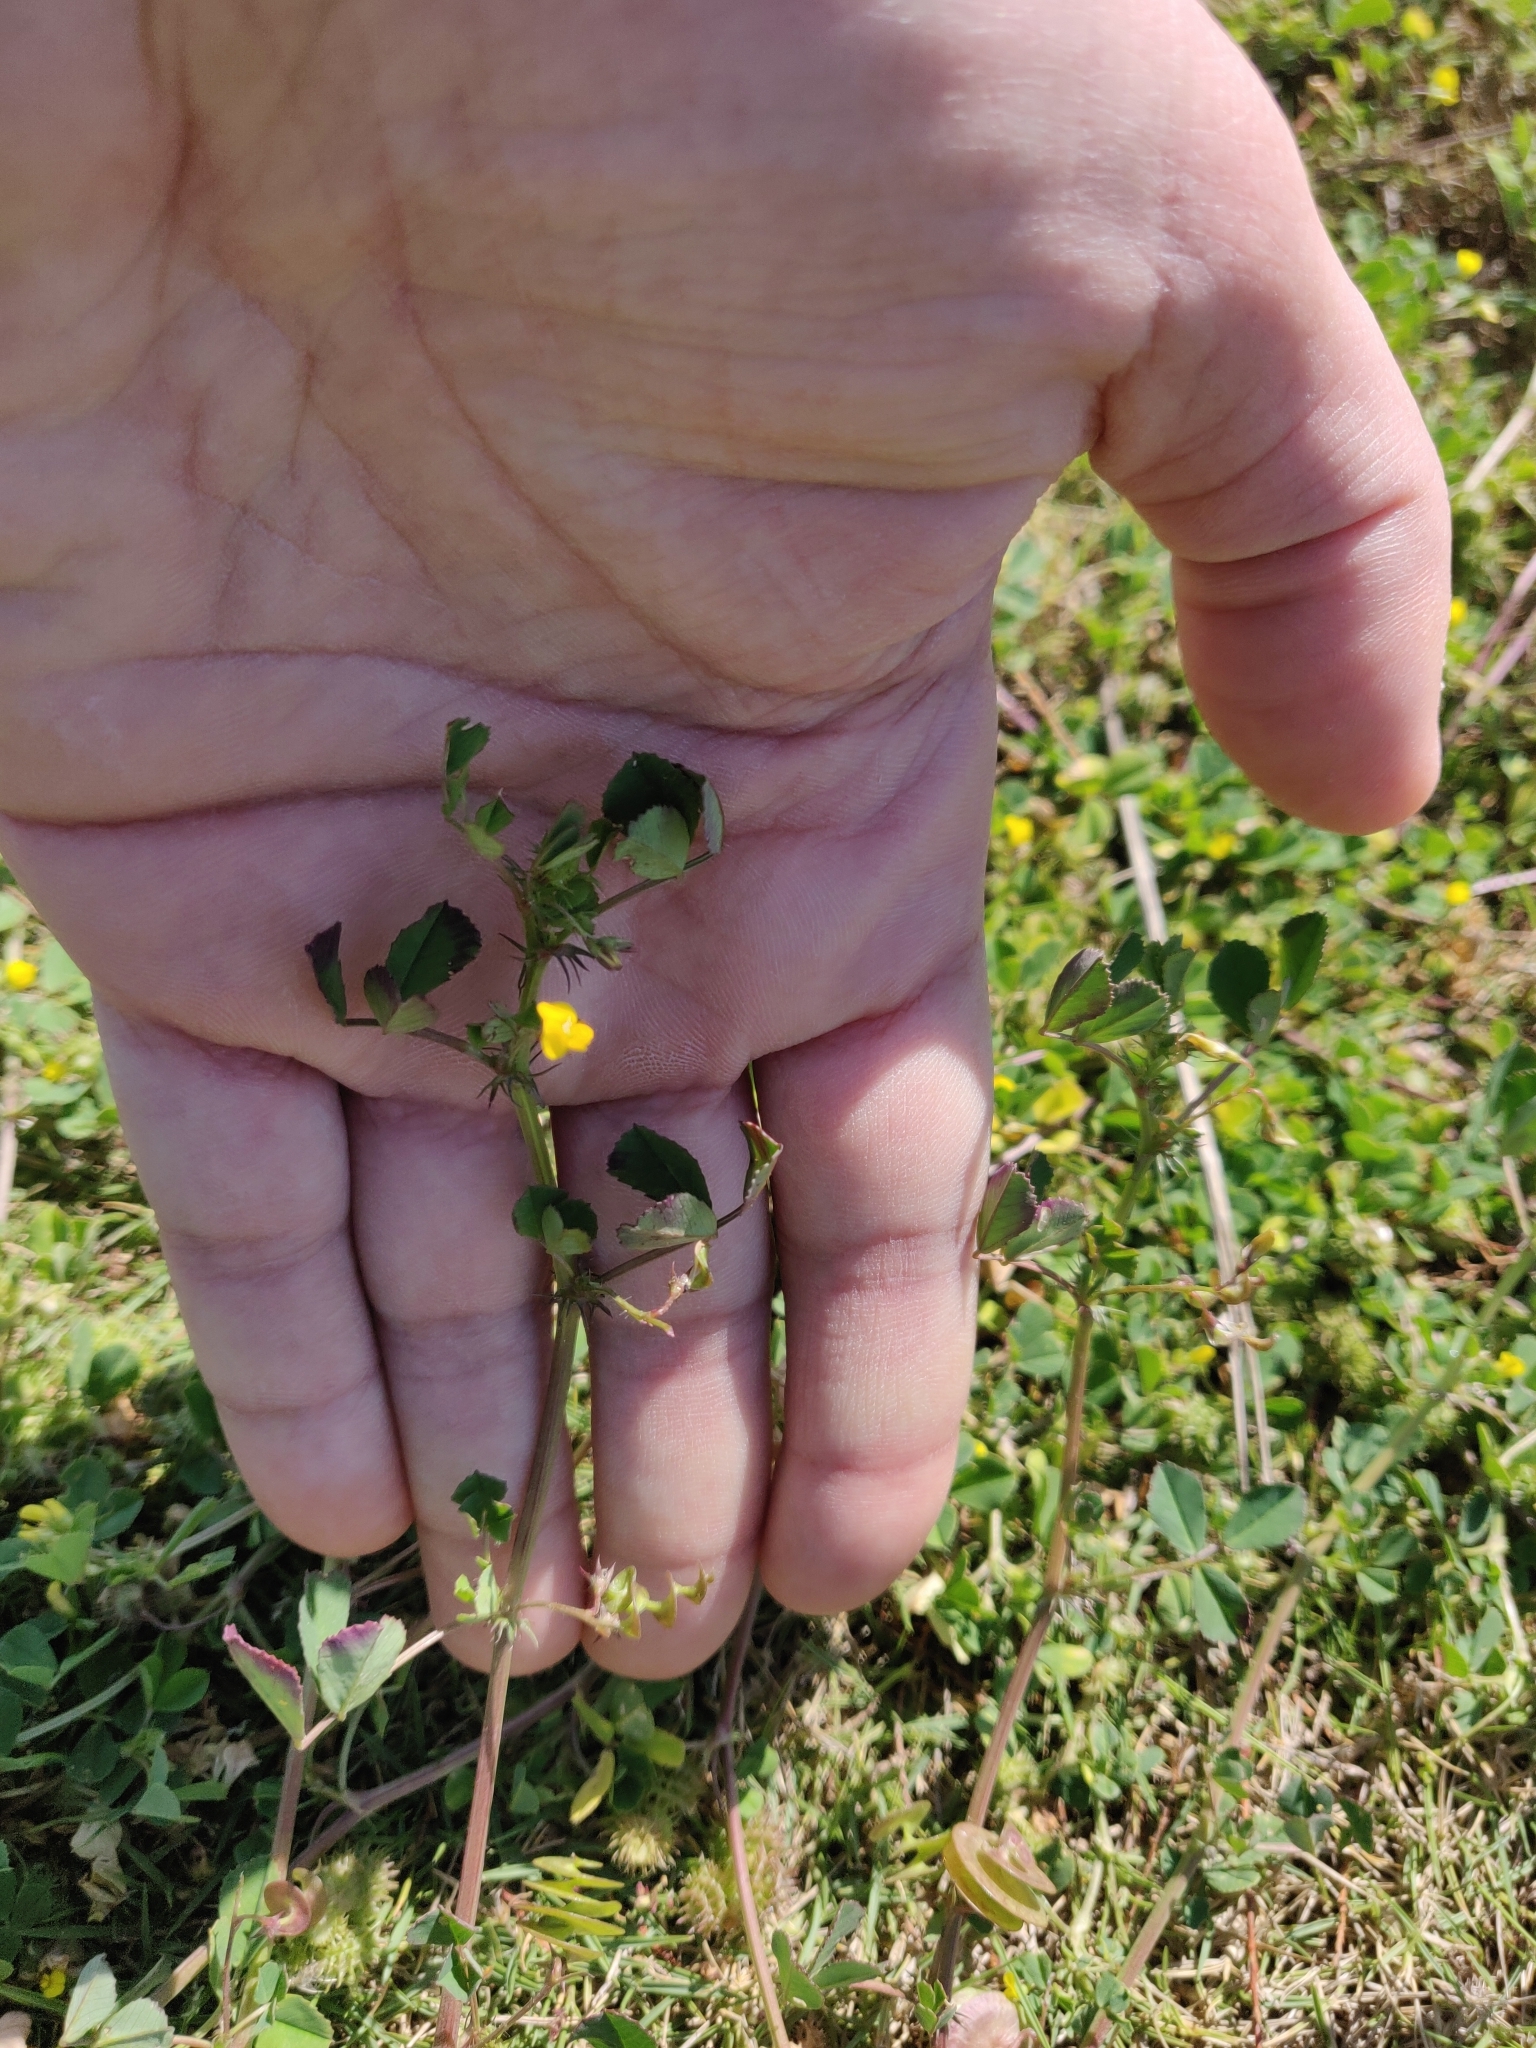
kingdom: Plantae
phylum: Tracheophyta
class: Magnoliopsida
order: Fabales
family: Fabaceae
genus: Medicago
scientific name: Medicago orbicularis
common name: Button medick
